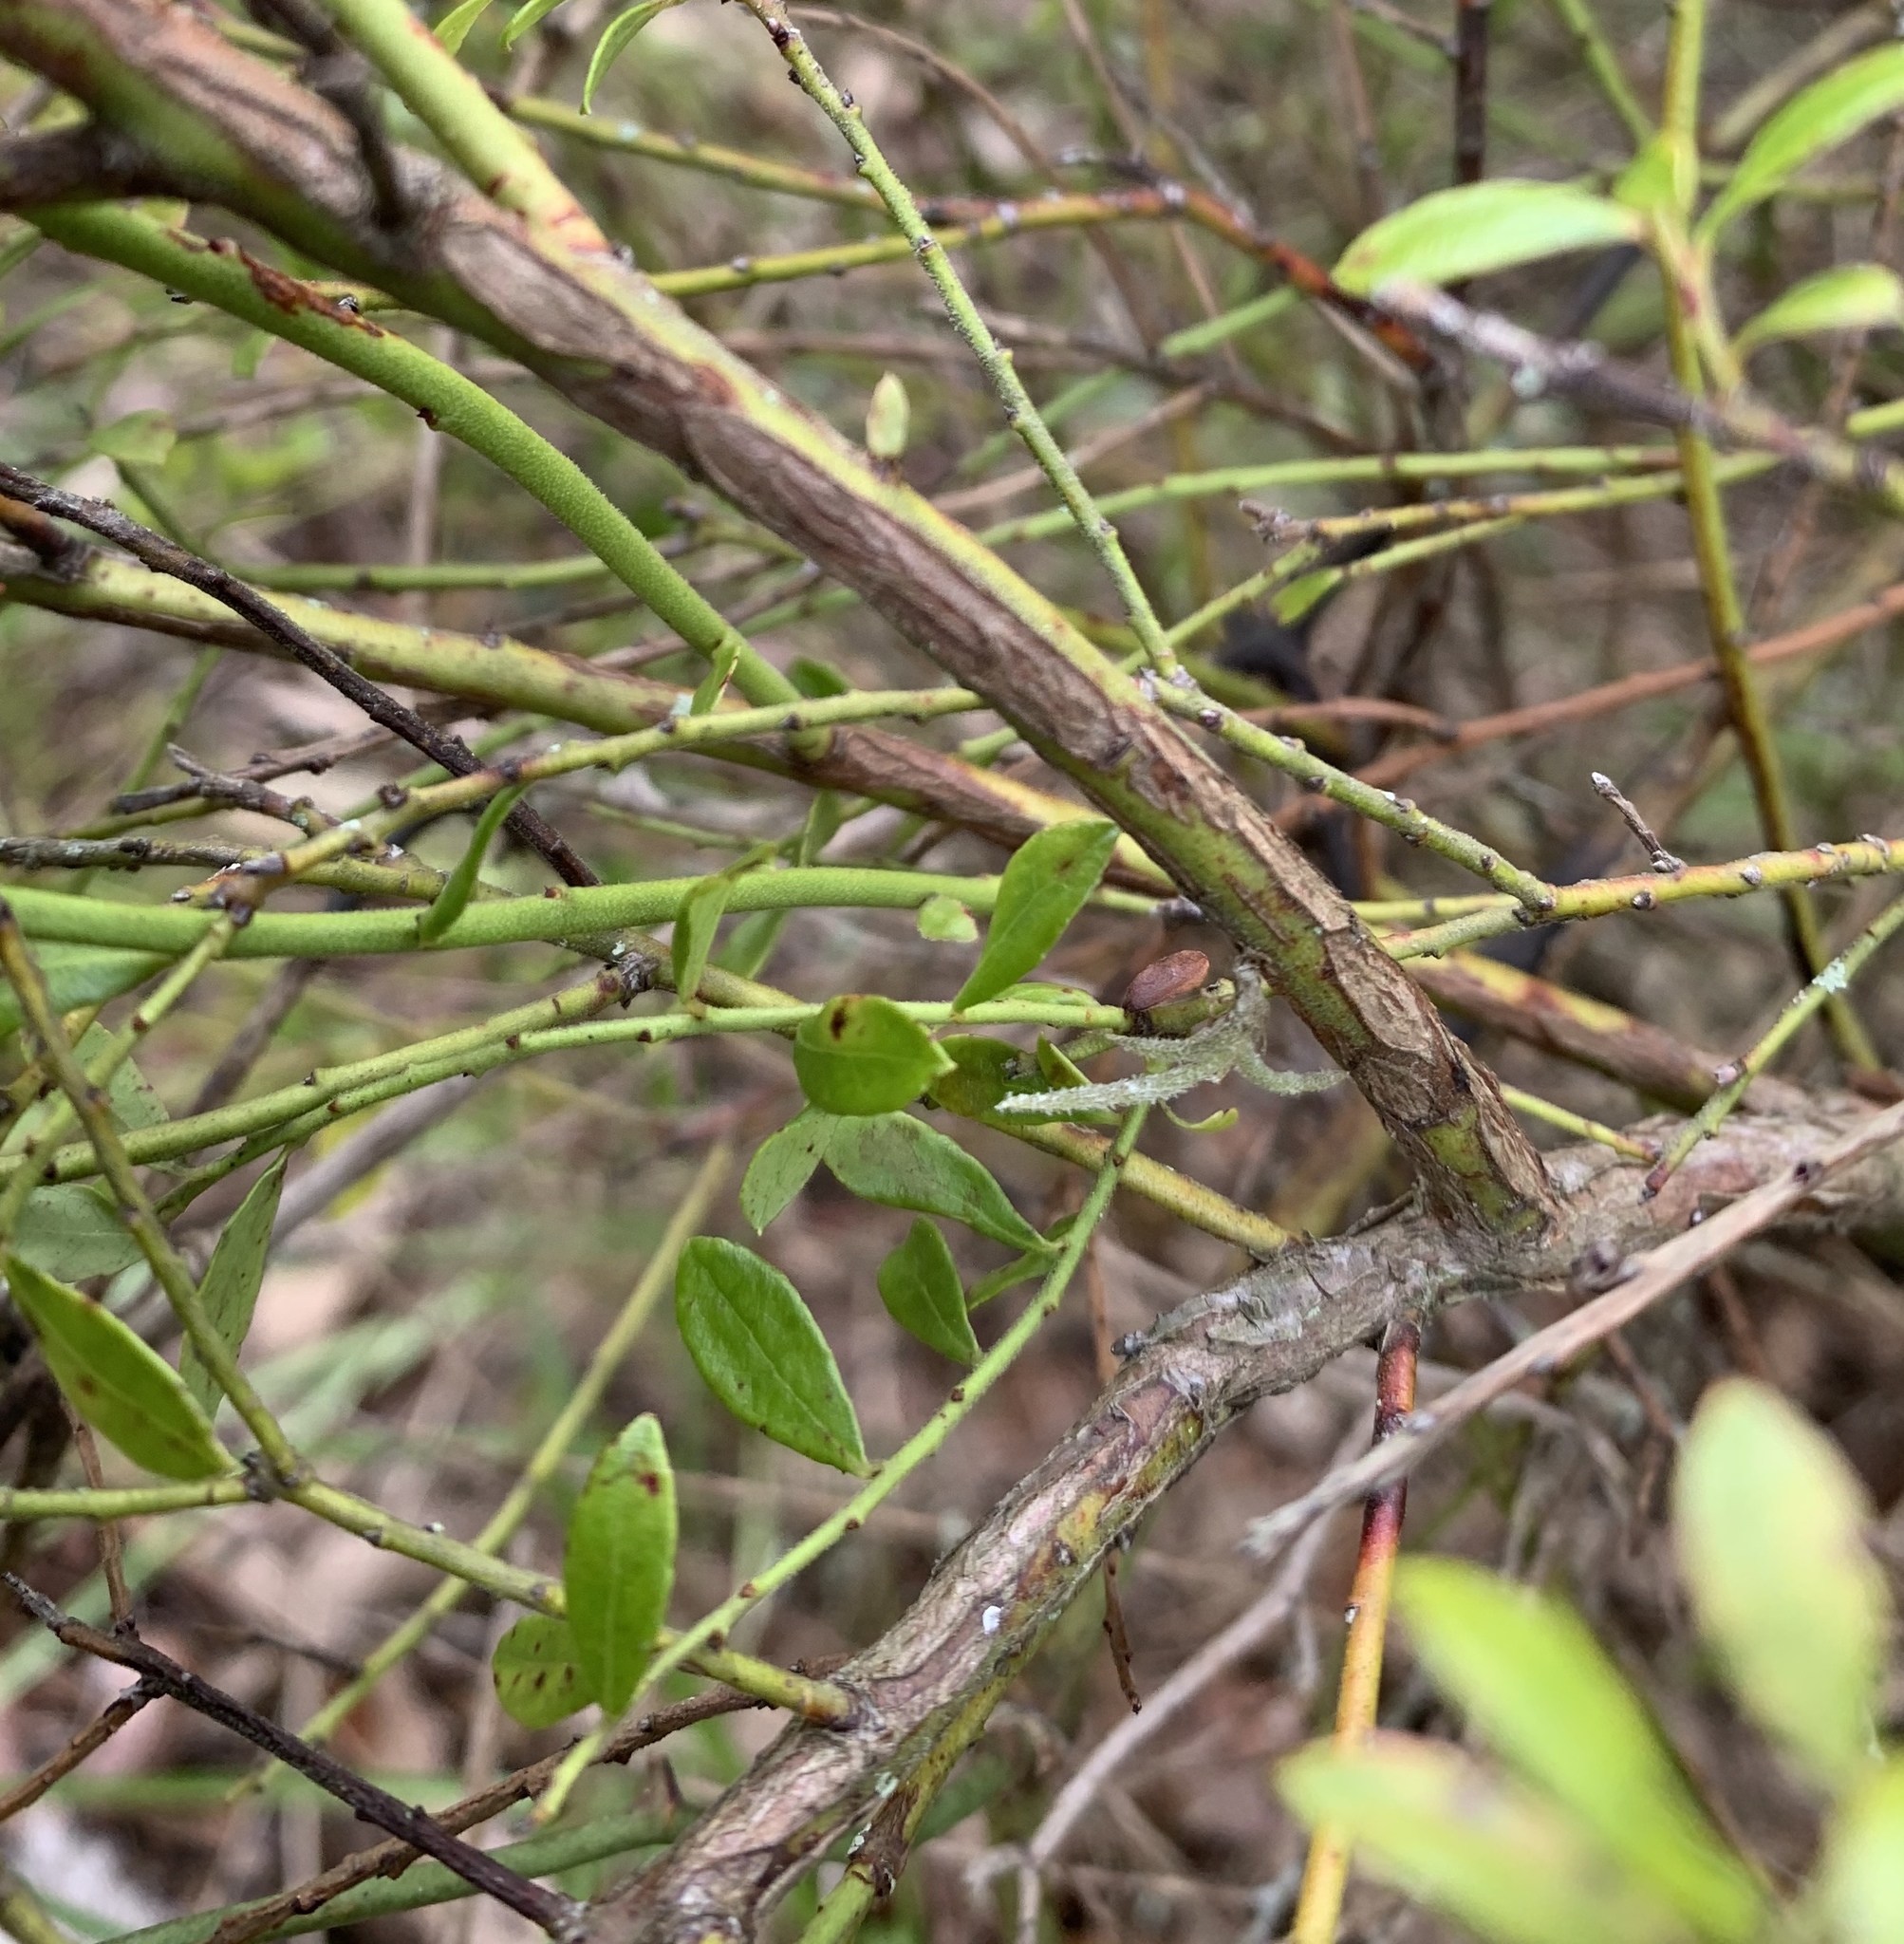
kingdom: Plantae
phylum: Tracheophyta
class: Magnoliopsida
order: Ericales
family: Ericaceae
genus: Vaccinium
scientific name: Vaccinium myrsinites
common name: Evergreen blueberry
